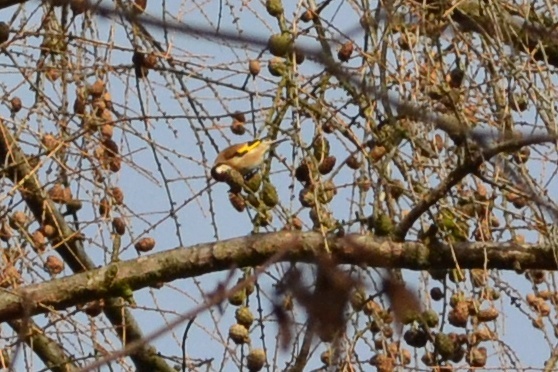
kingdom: Animalia
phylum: Chordata
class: Aves
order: Passeriformes
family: Fringillidae
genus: Carduelis
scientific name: Carduelis carduelis
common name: European goldfinch
